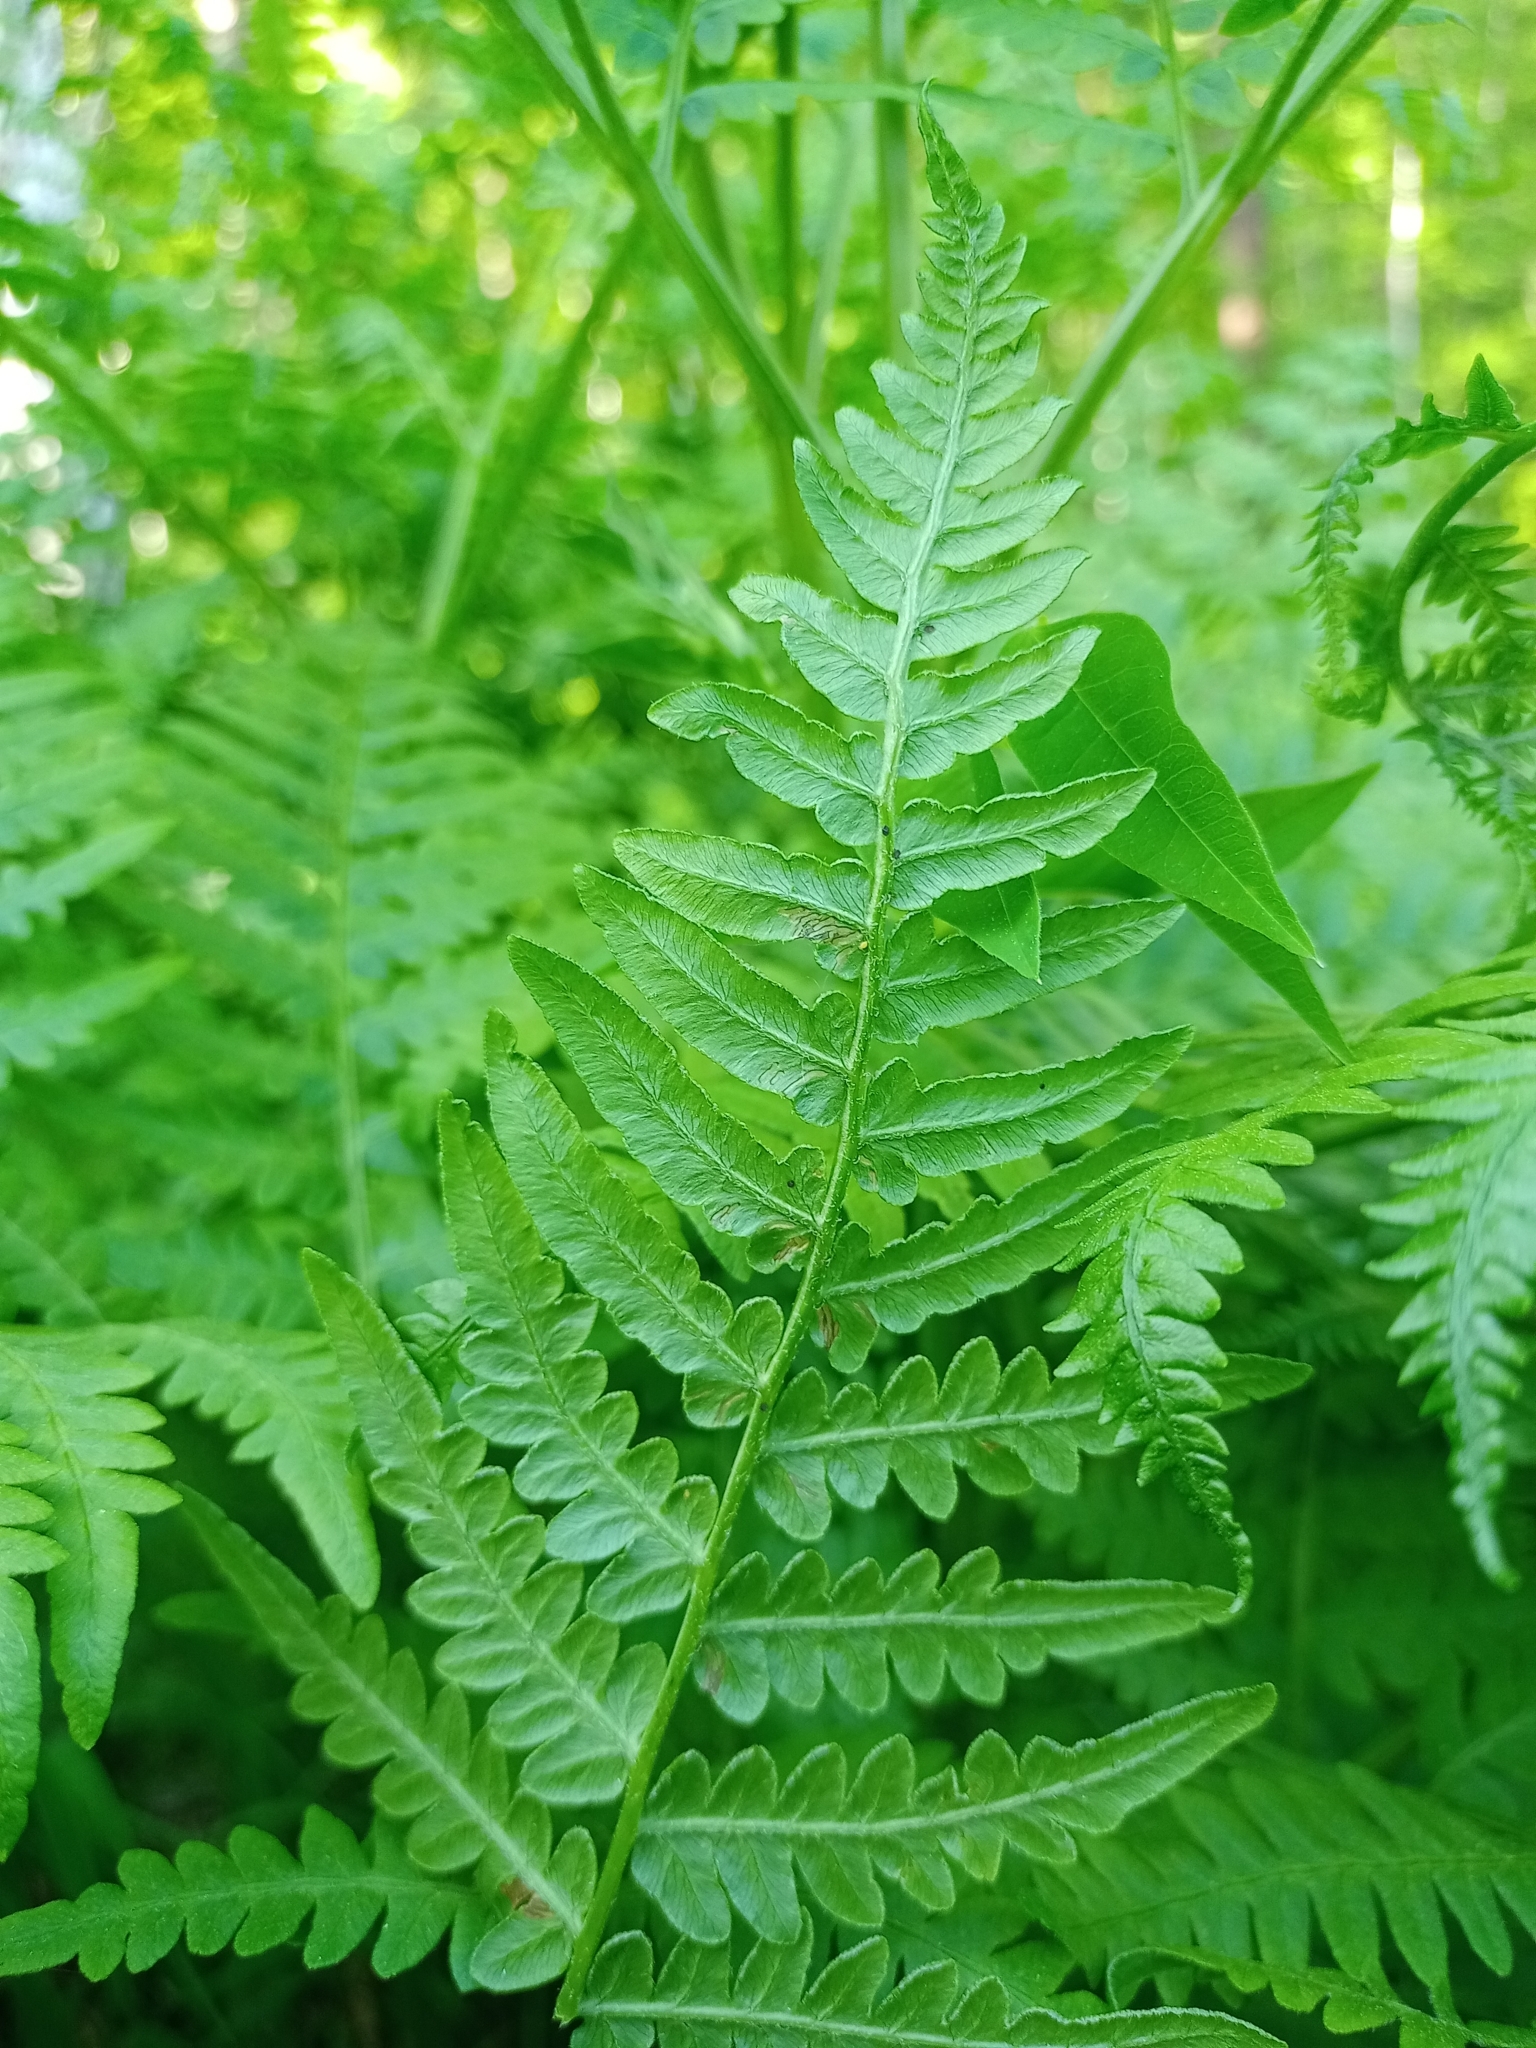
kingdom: Plantae
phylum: Tracheophyta
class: Polypodiopsida
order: Polypodiales
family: Dennstaedtiaceae
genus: Pteridium
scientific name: Pteridium aquilinum
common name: Bracken
